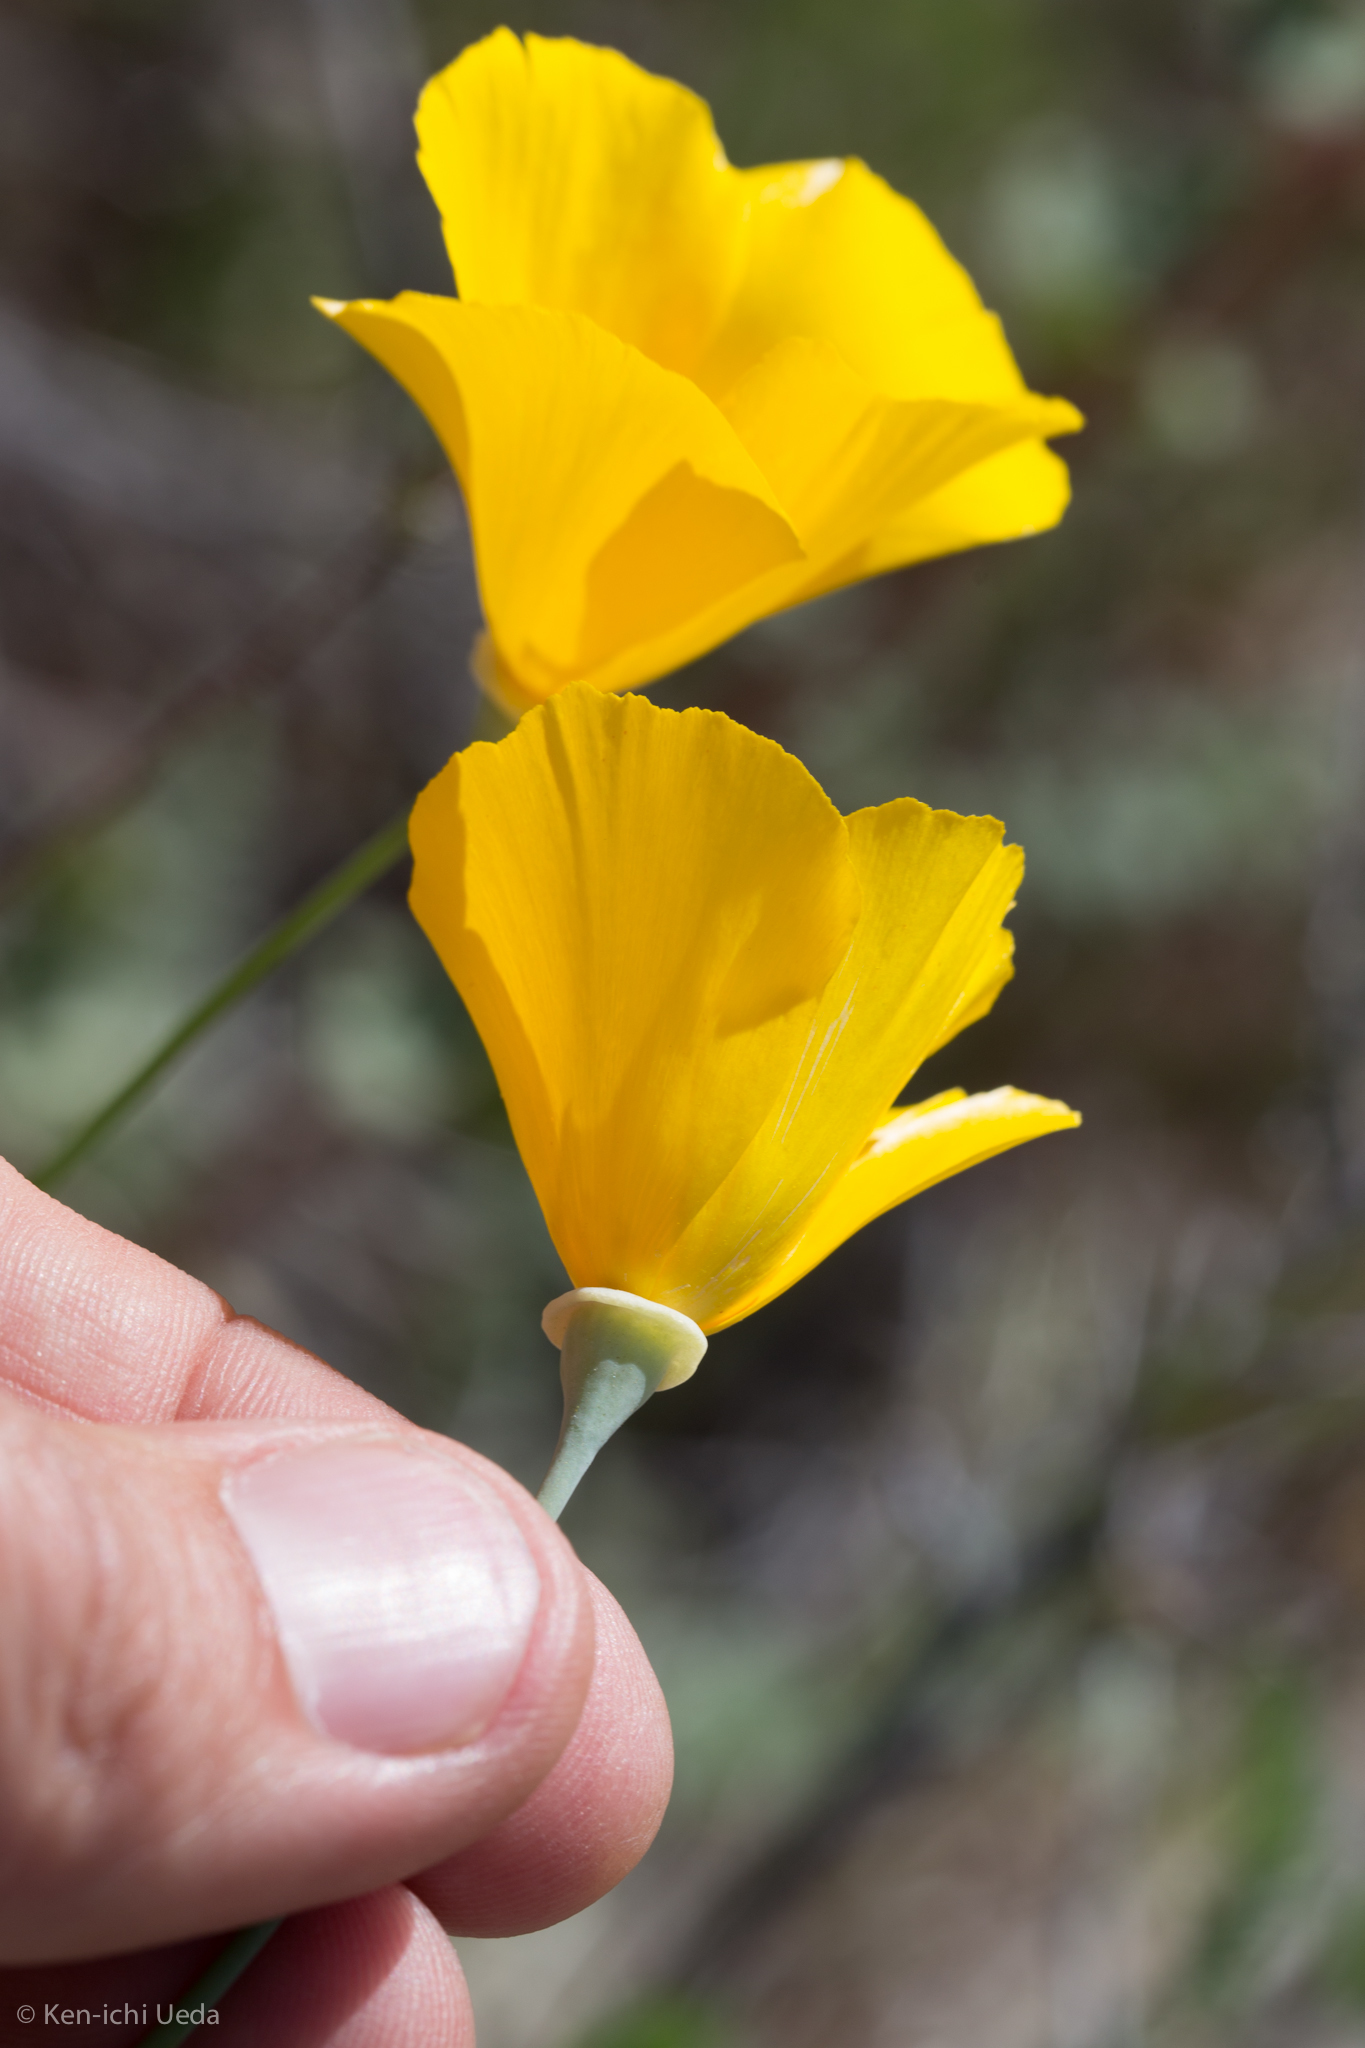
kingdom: Plantae
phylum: Tracheophyta
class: Magnoliopsida
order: Ranunculales
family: Papaveraceae
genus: Eschscholzia
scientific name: Eschscholzia papastillii
